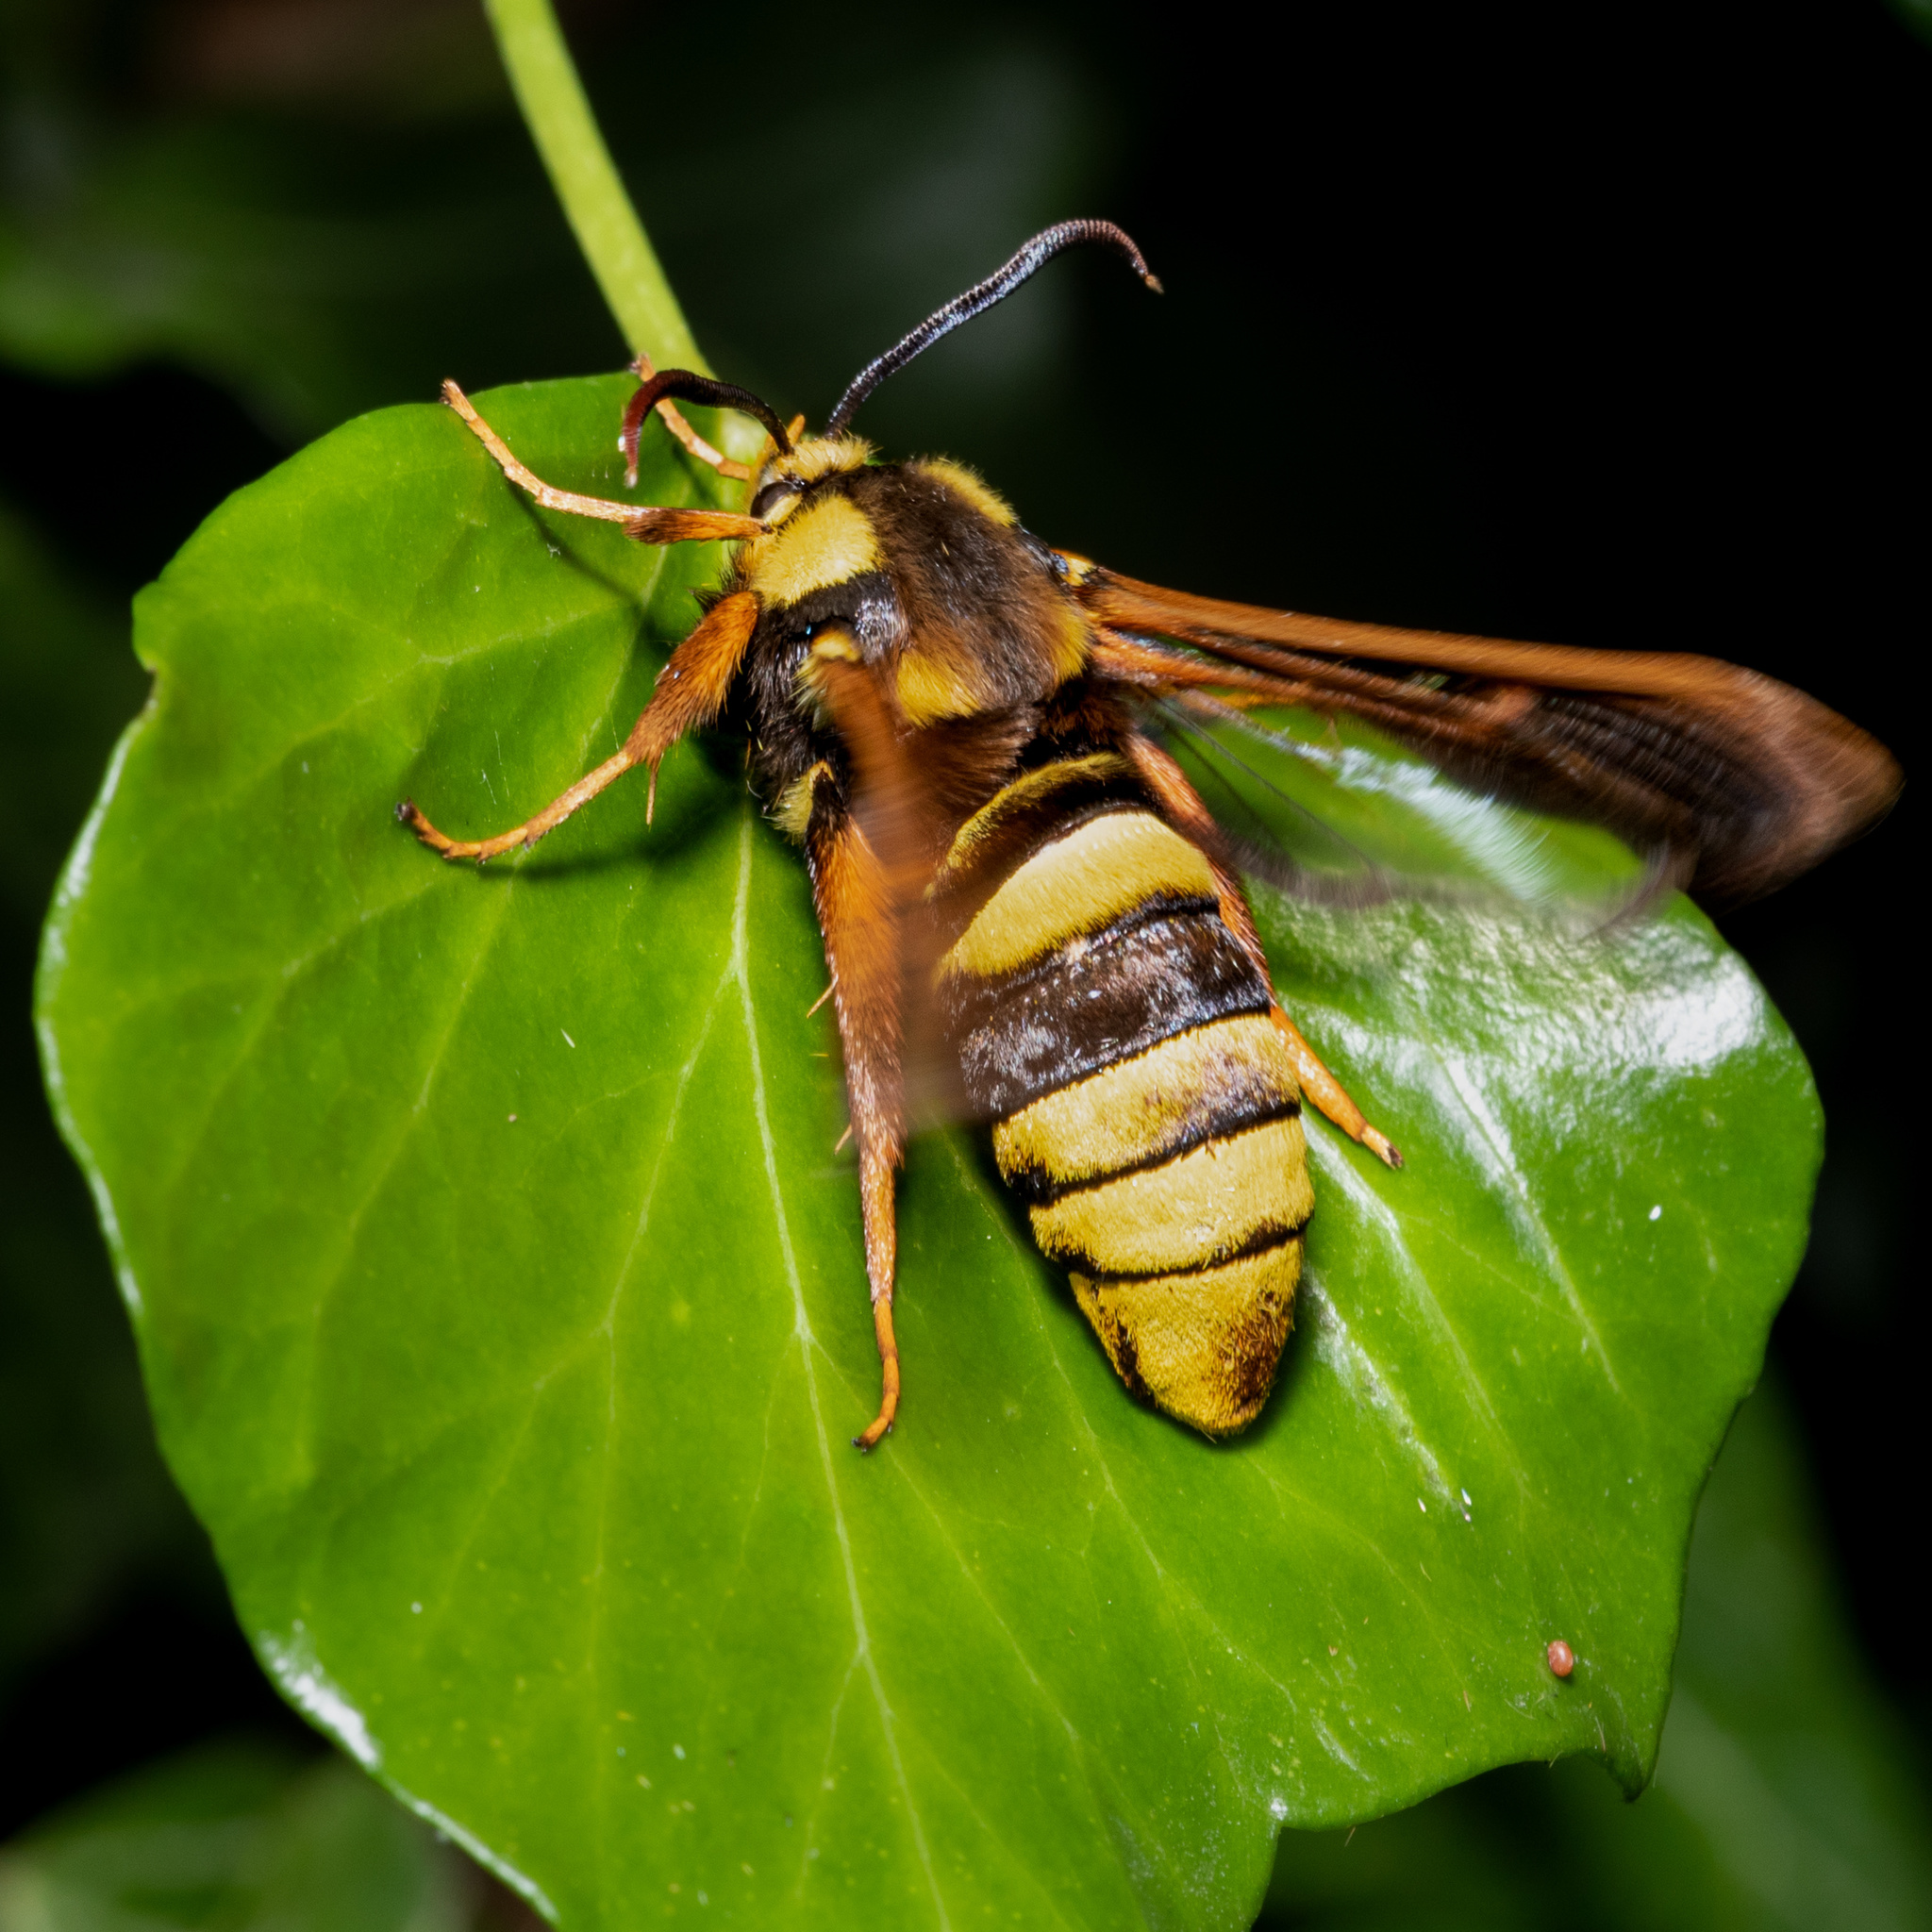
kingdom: Animalia
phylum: Arthropoda
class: Insecta
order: Lepidoptera
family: Sesiidae
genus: Sesia
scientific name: Sesia apiformis
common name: Hornet moth
